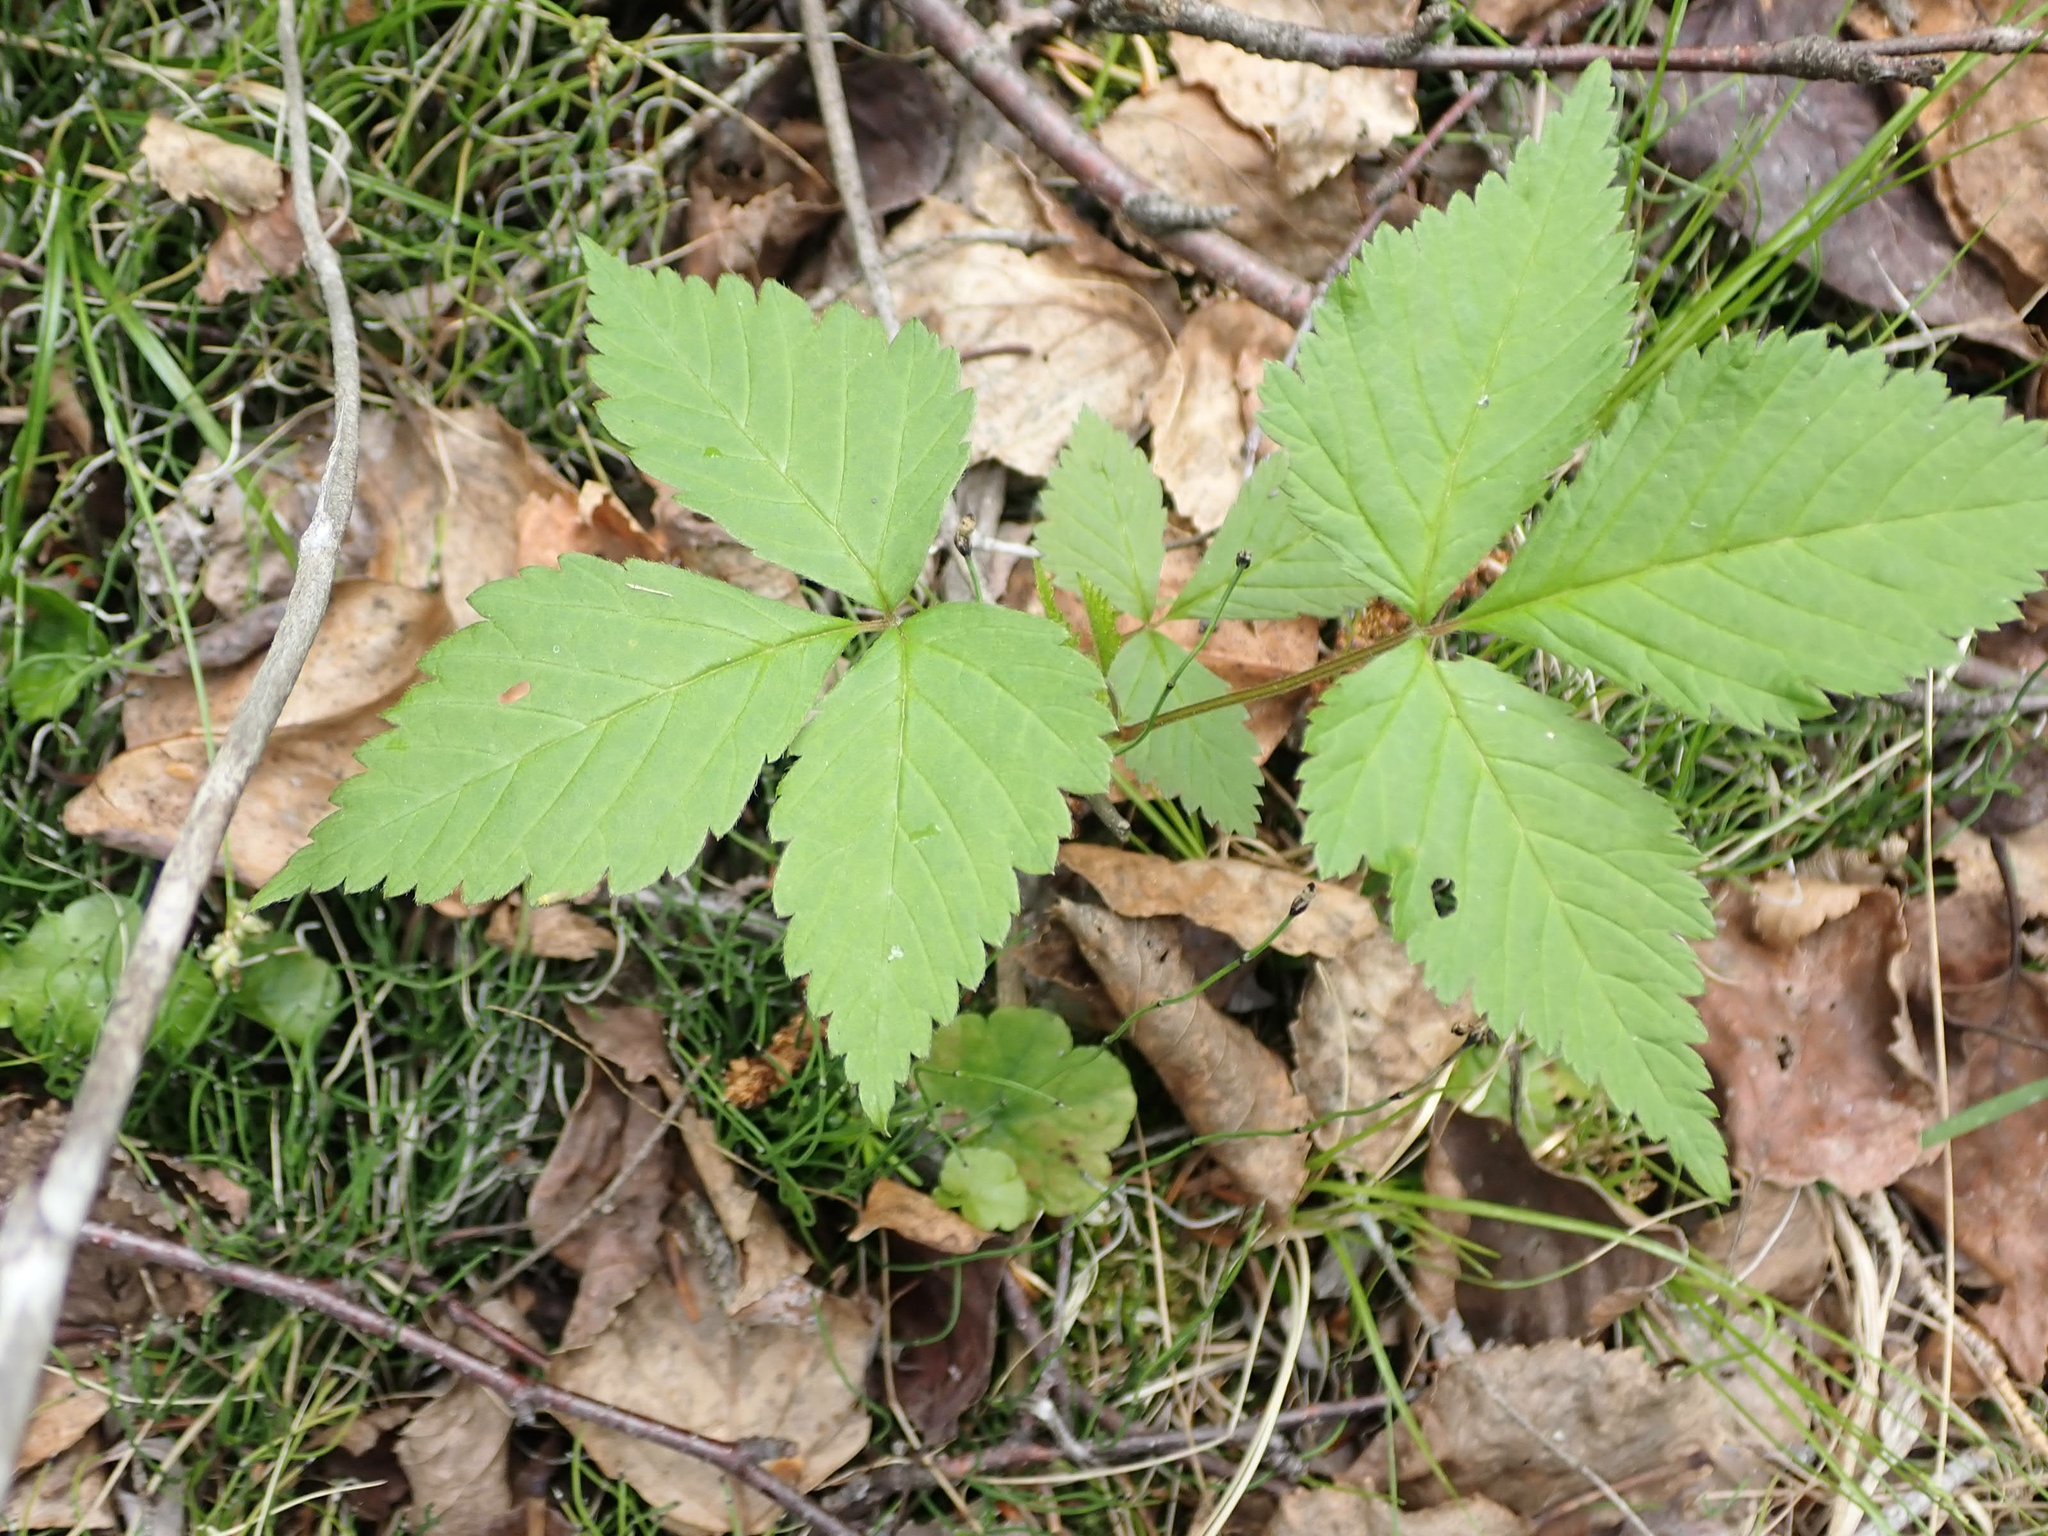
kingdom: Plantae
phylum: Tracheophyta
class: Magnoliopsida
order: Rosales
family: Rosaceae
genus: Rubus
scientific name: Rubus pubescens
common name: Dwarf raspberry
